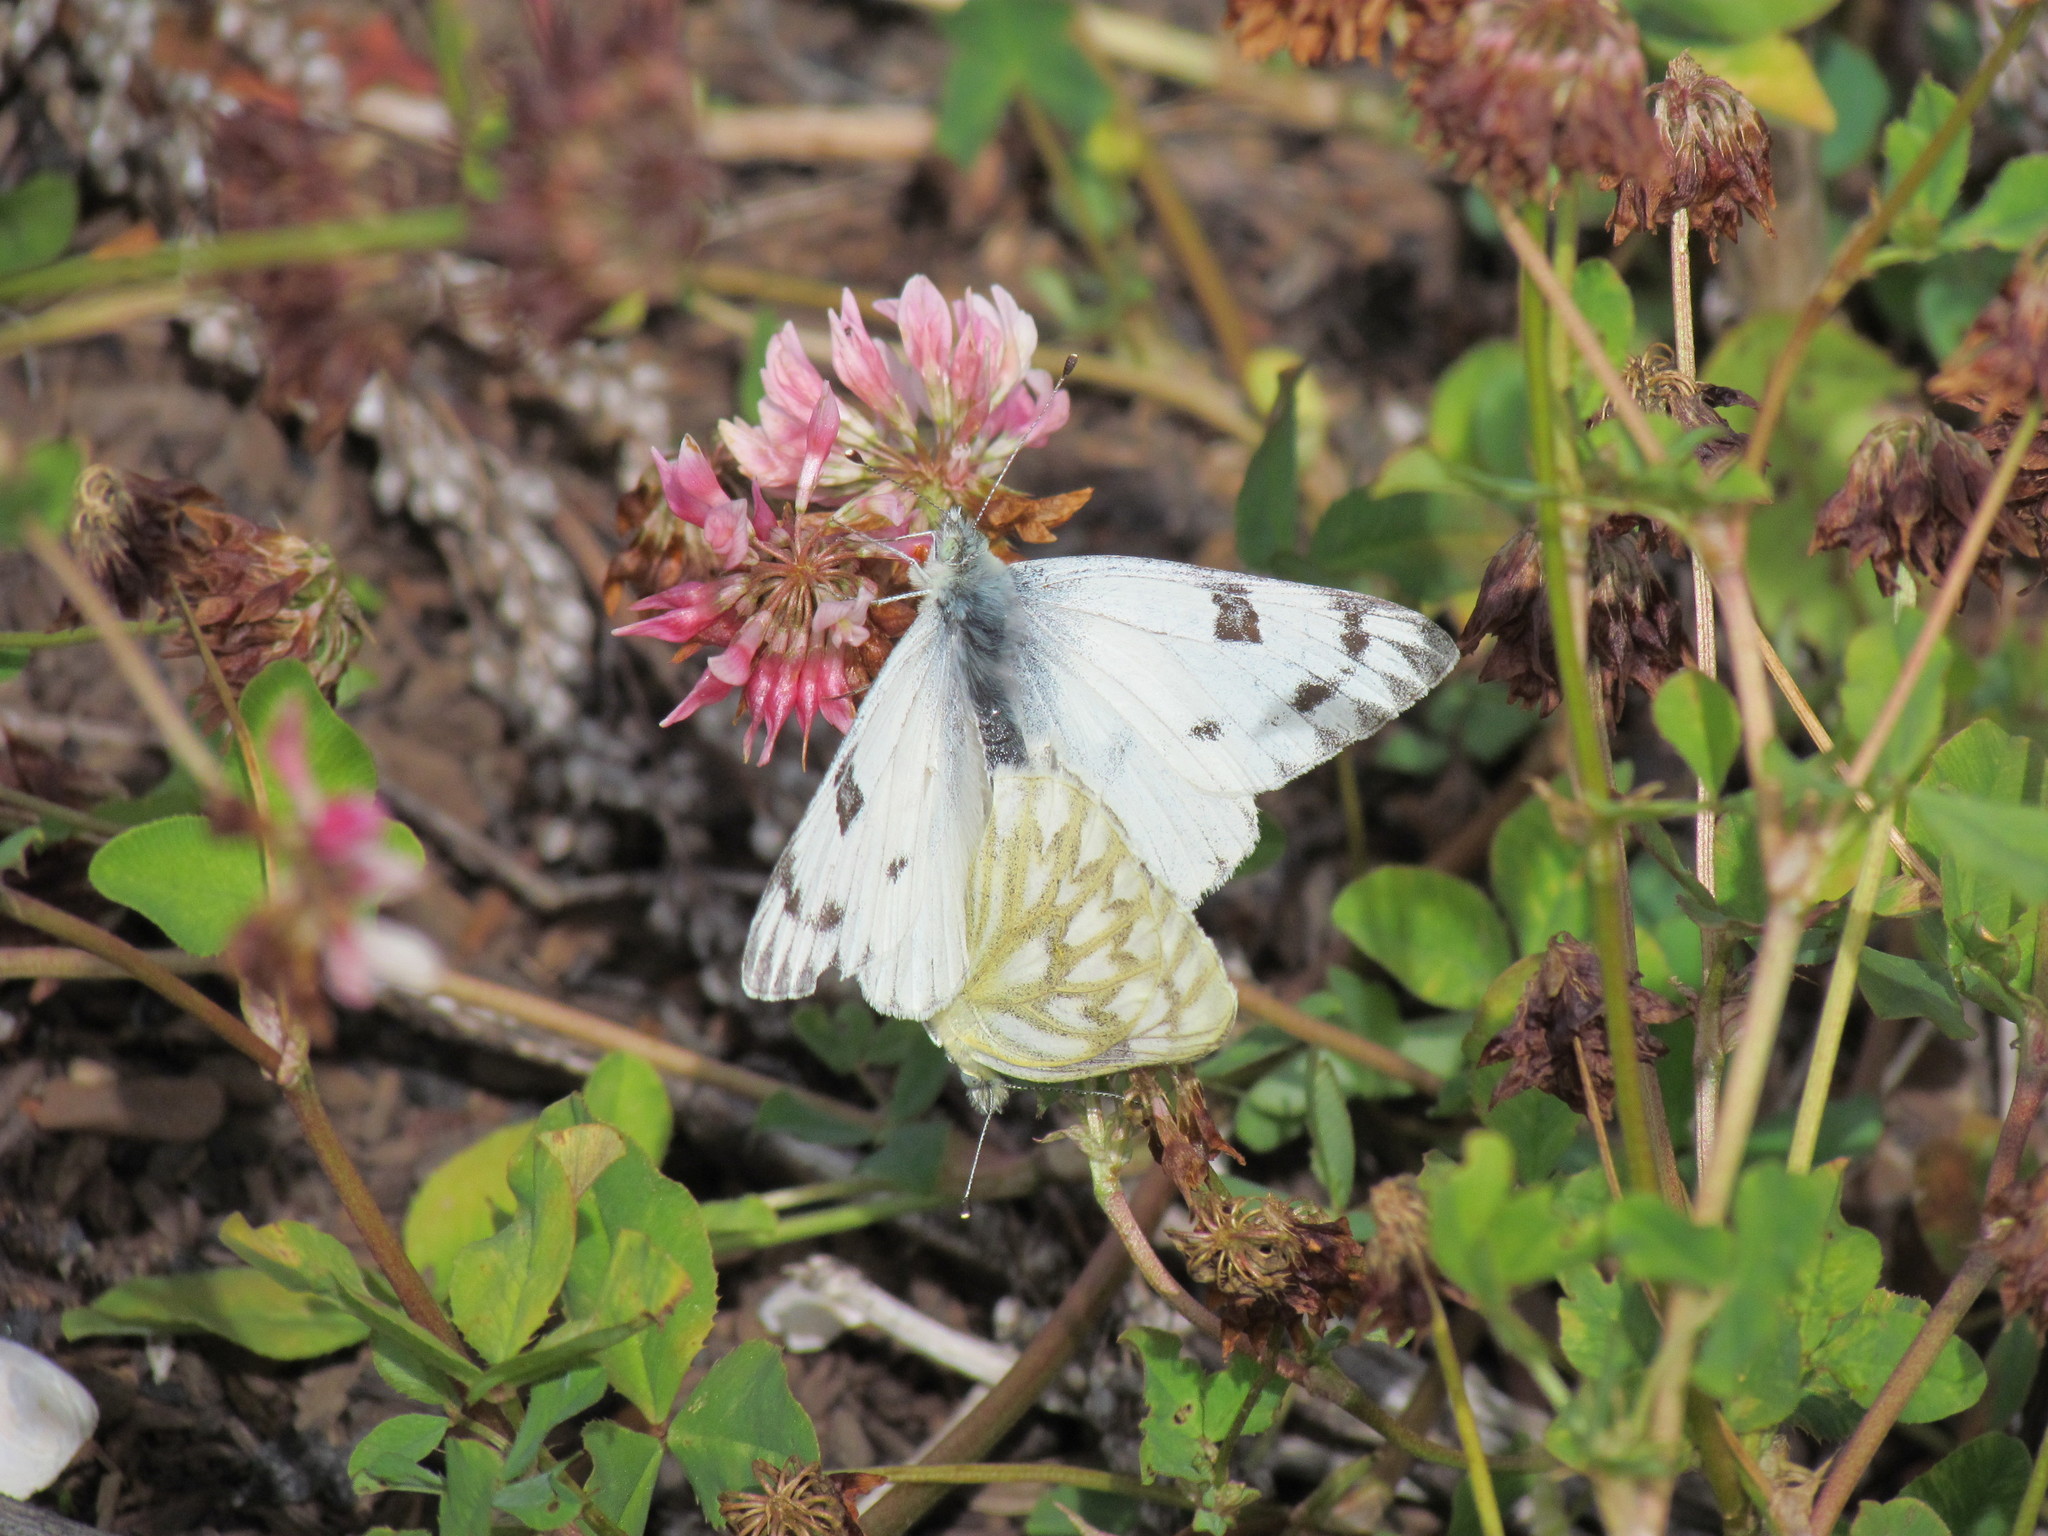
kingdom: Animalia
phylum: Arthropoda
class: Insecta
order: Lepidoptera
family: Pieridae
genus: Pontia
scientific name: Pontia occidentalis
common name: Western white
